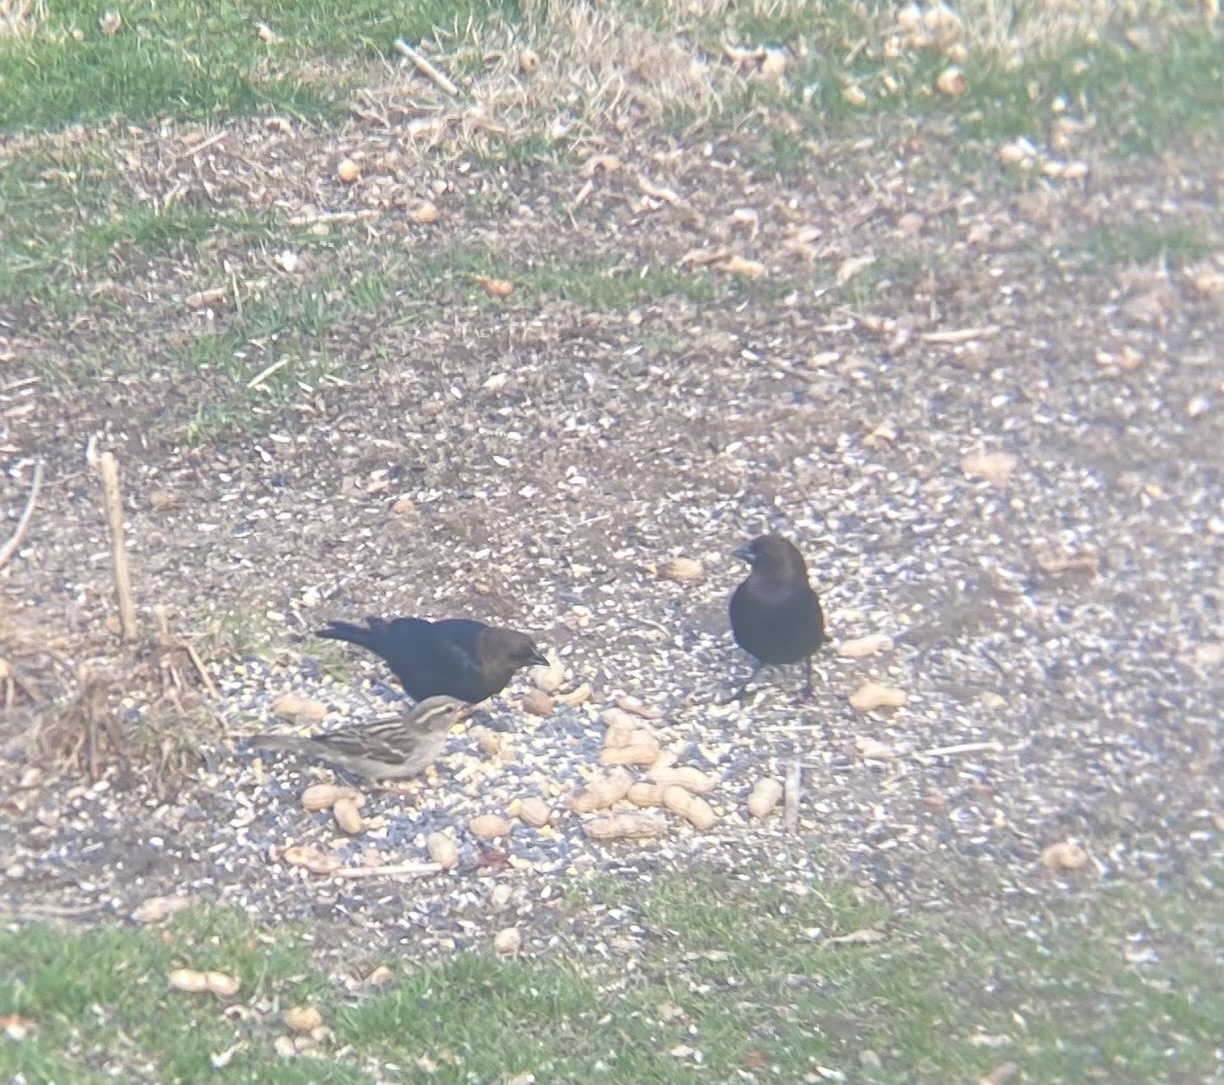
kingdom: Animalia
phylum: Chordata
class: Aves
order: Passeriformes
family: Icteridae
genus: Molothrus
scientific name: Molothrus ater
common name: Brown-headed cowbird
